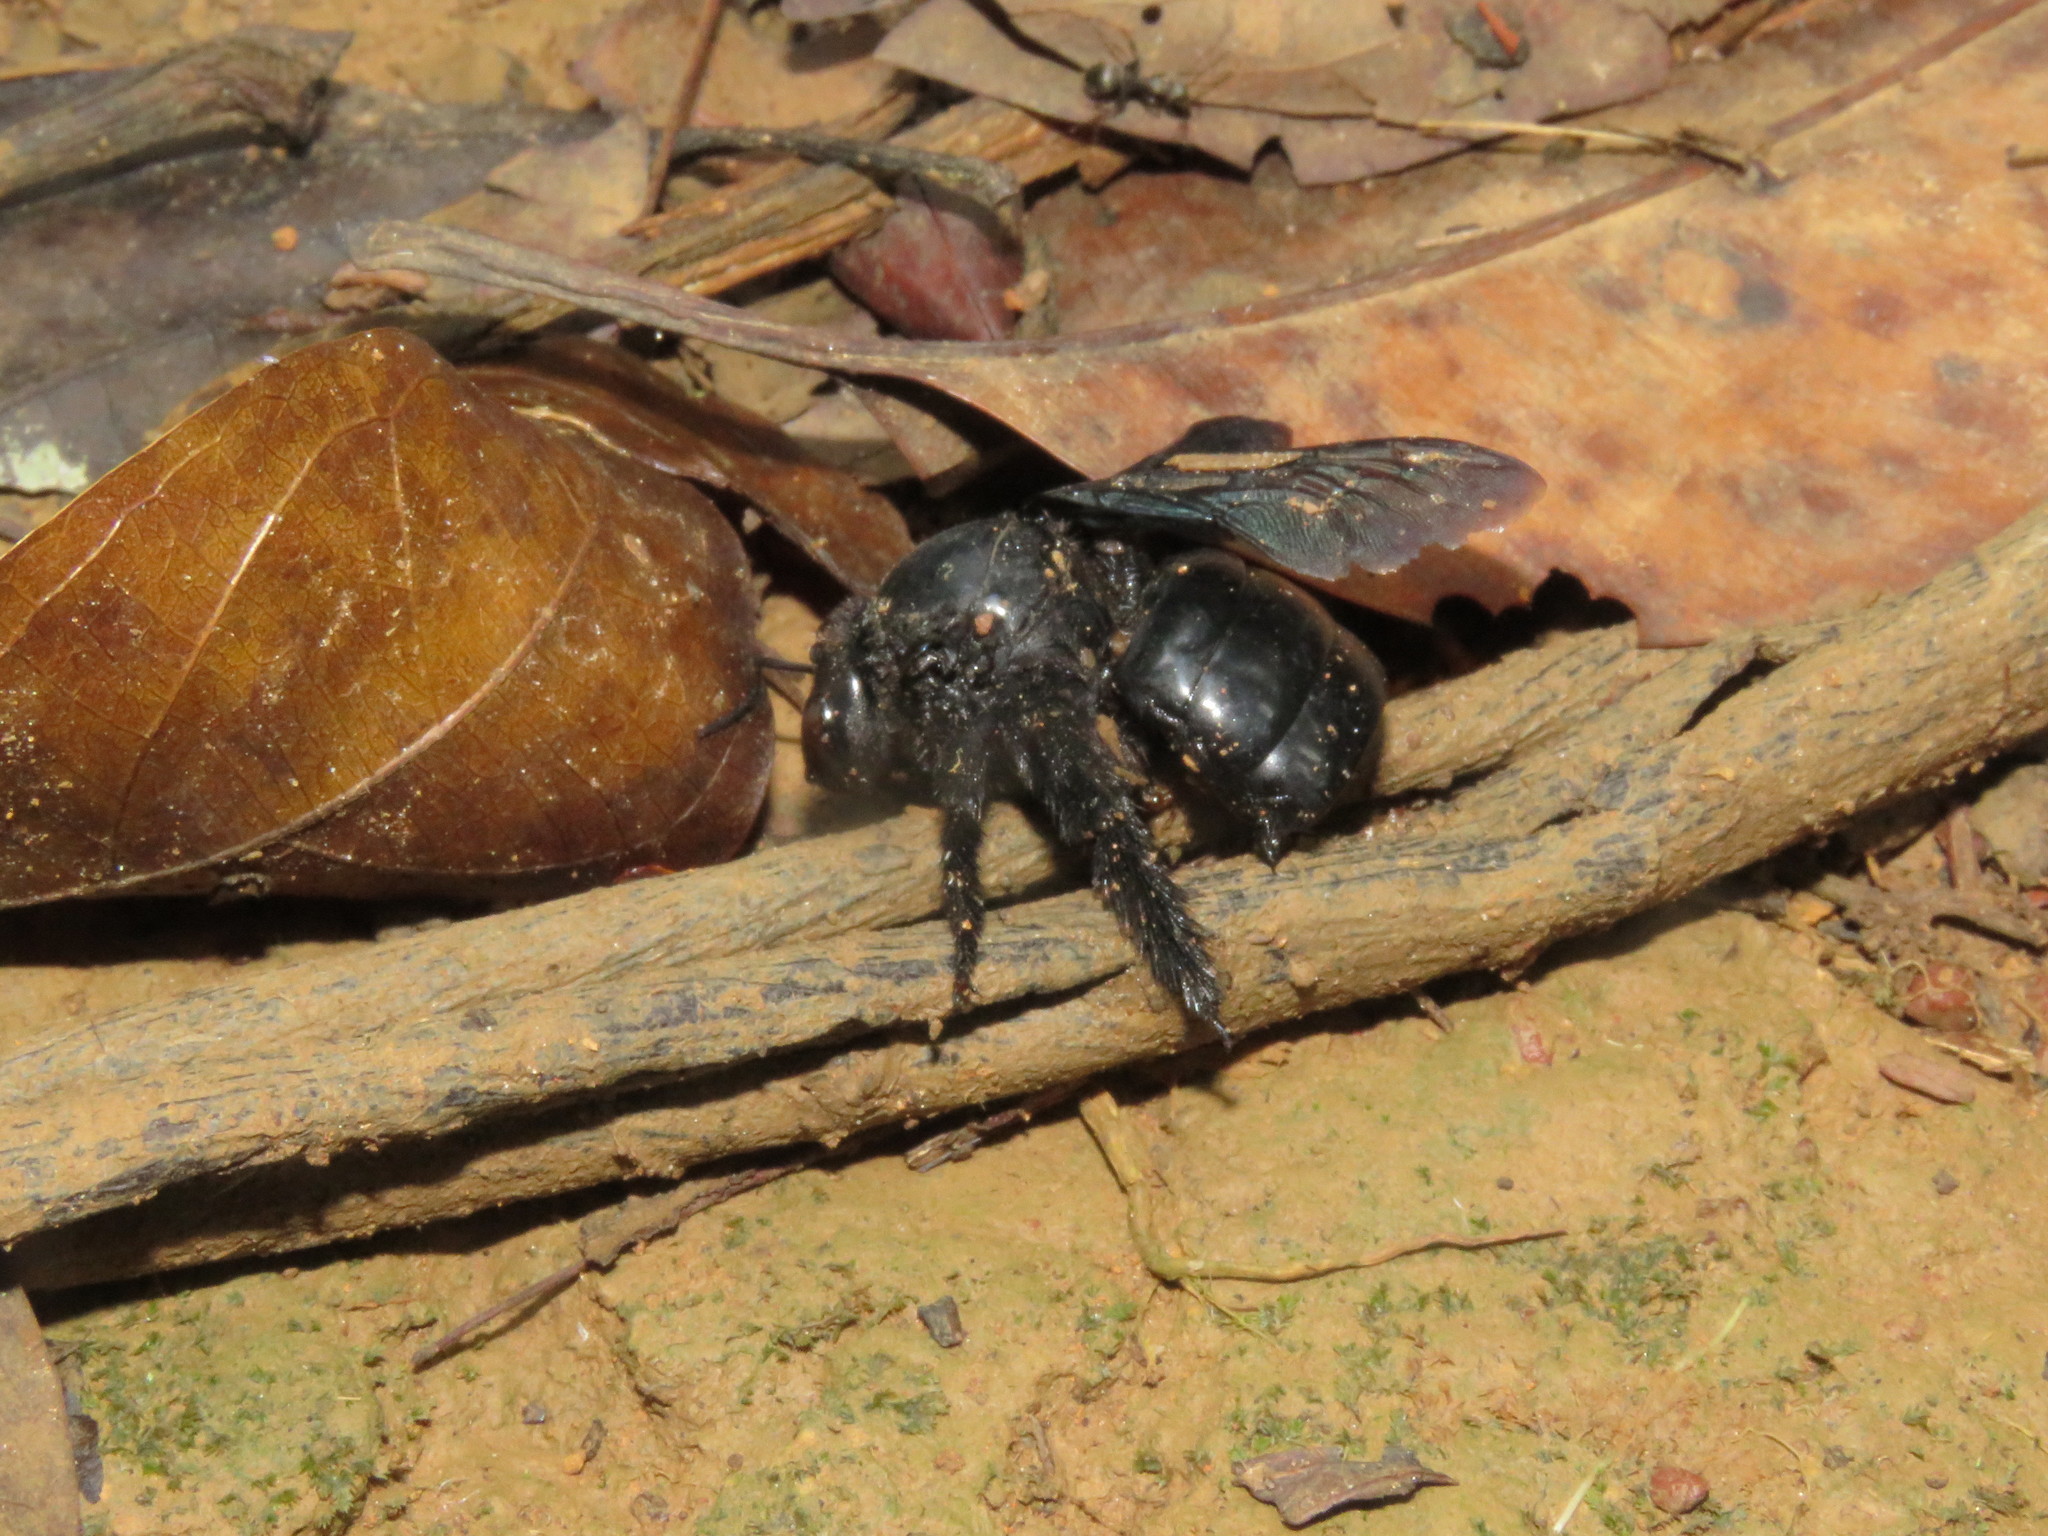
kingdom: Animalia
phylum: Arthropoda
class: Insecta
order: Hymenoptera
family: Apidae
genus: Xylocopa
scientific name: Xylocopa frontalis
